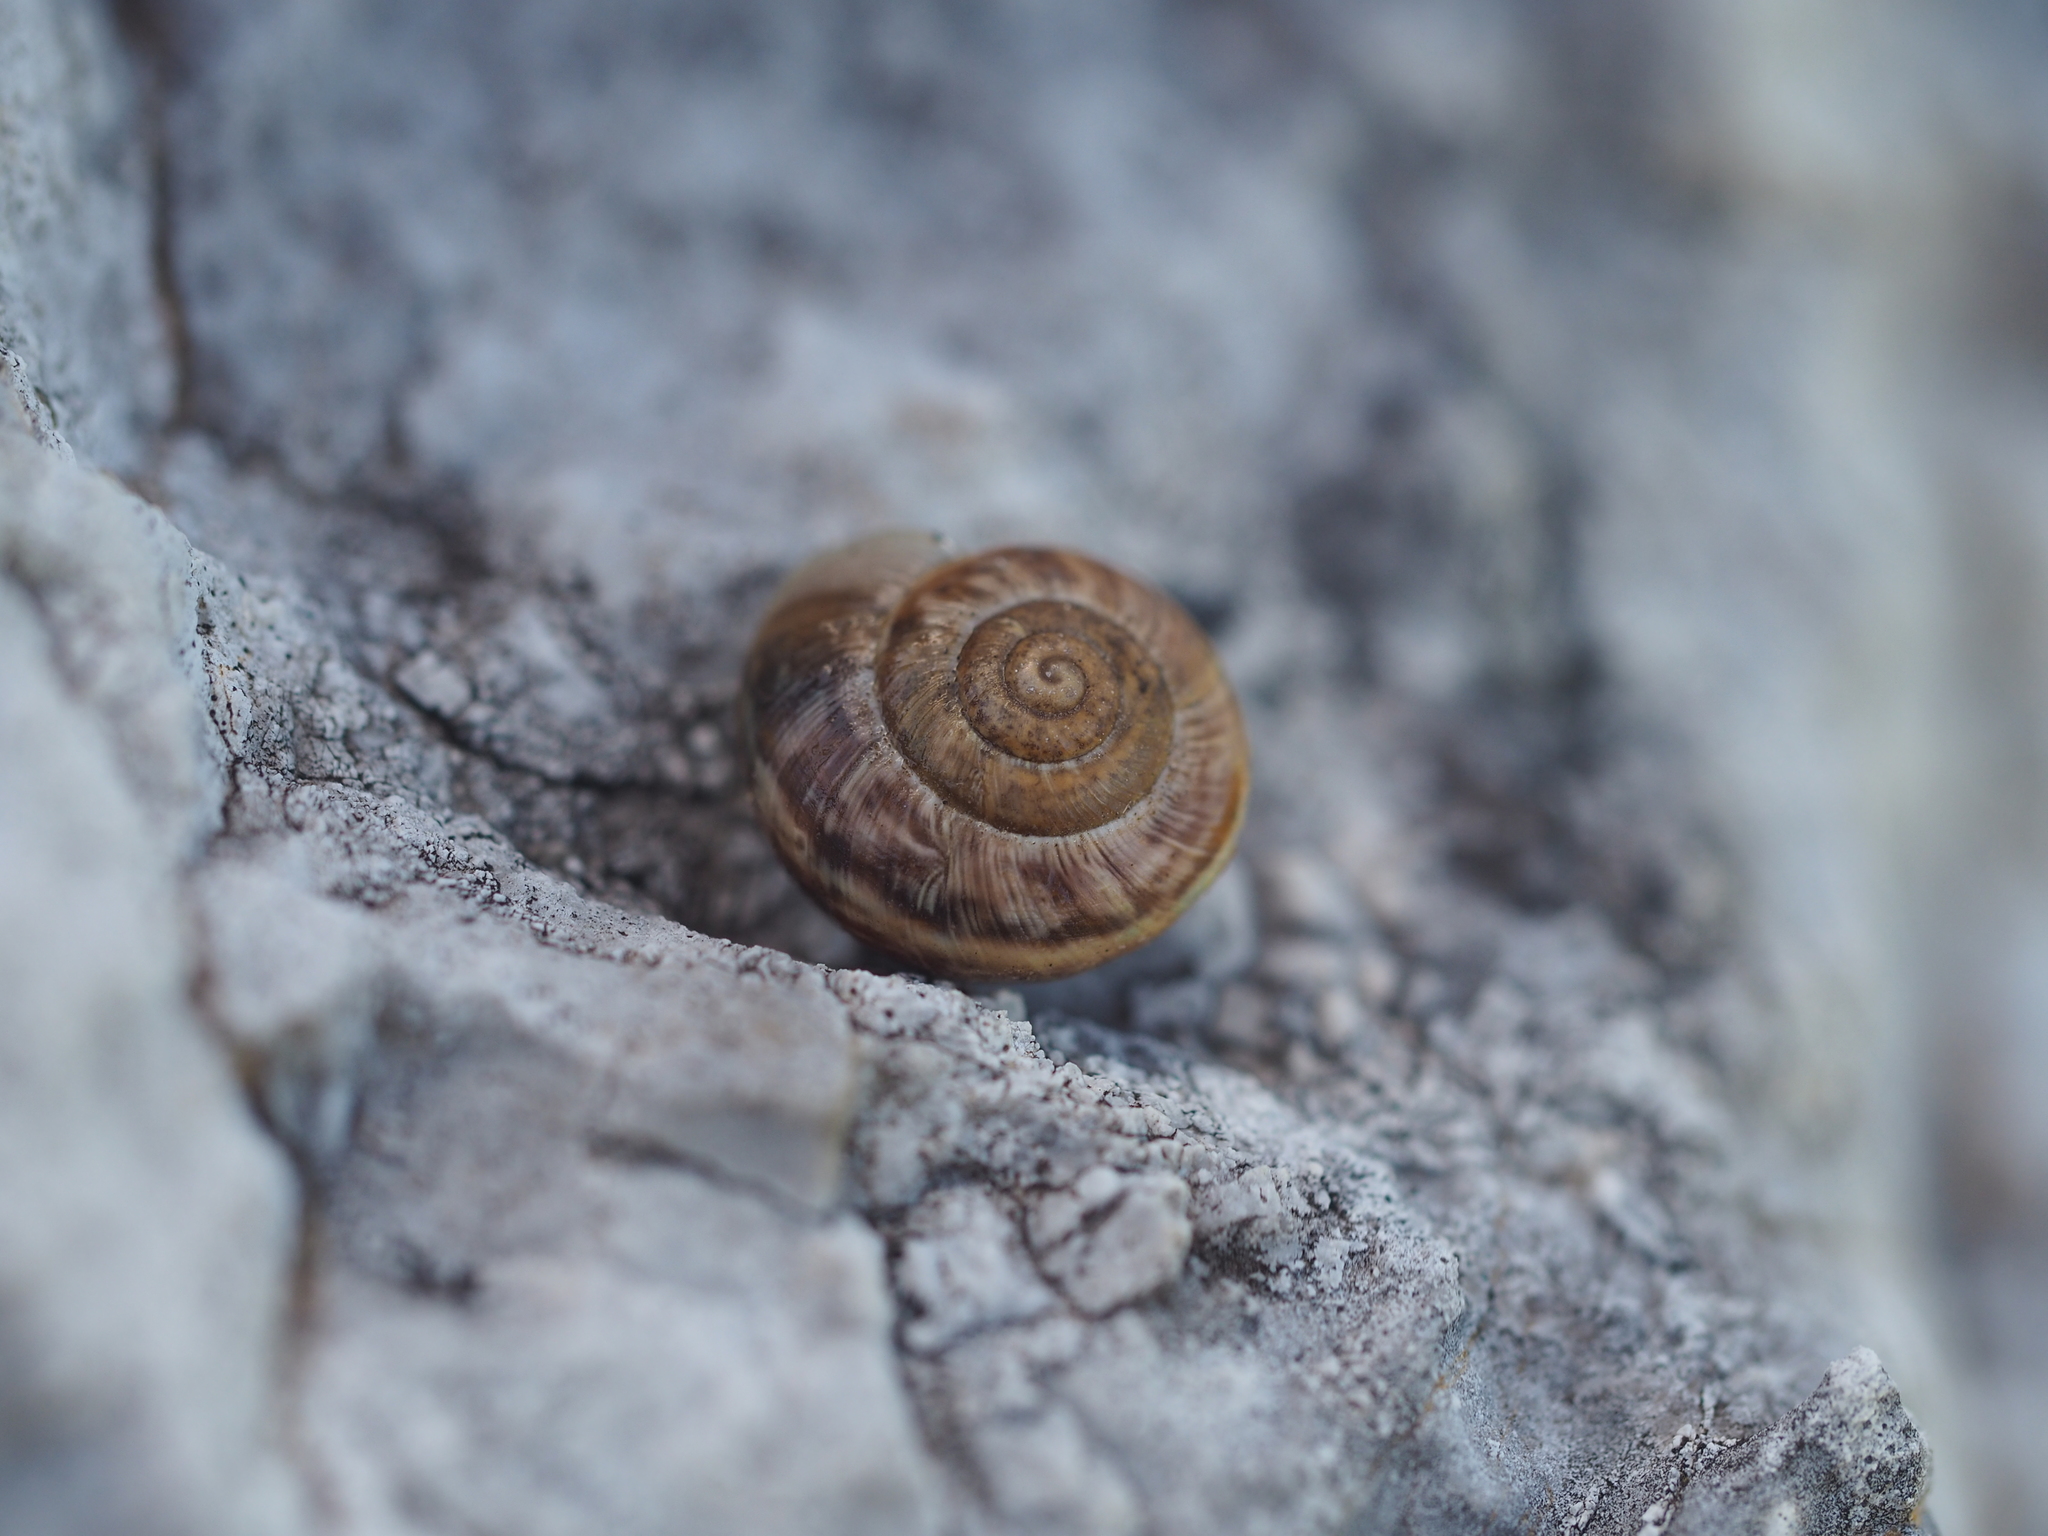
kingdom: Animalia
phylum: Mollusca
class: Gastropoda
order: Stylommatophora
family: Helicidae
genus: Arianta
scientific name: Arianta arbustorum
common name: Copse snail
